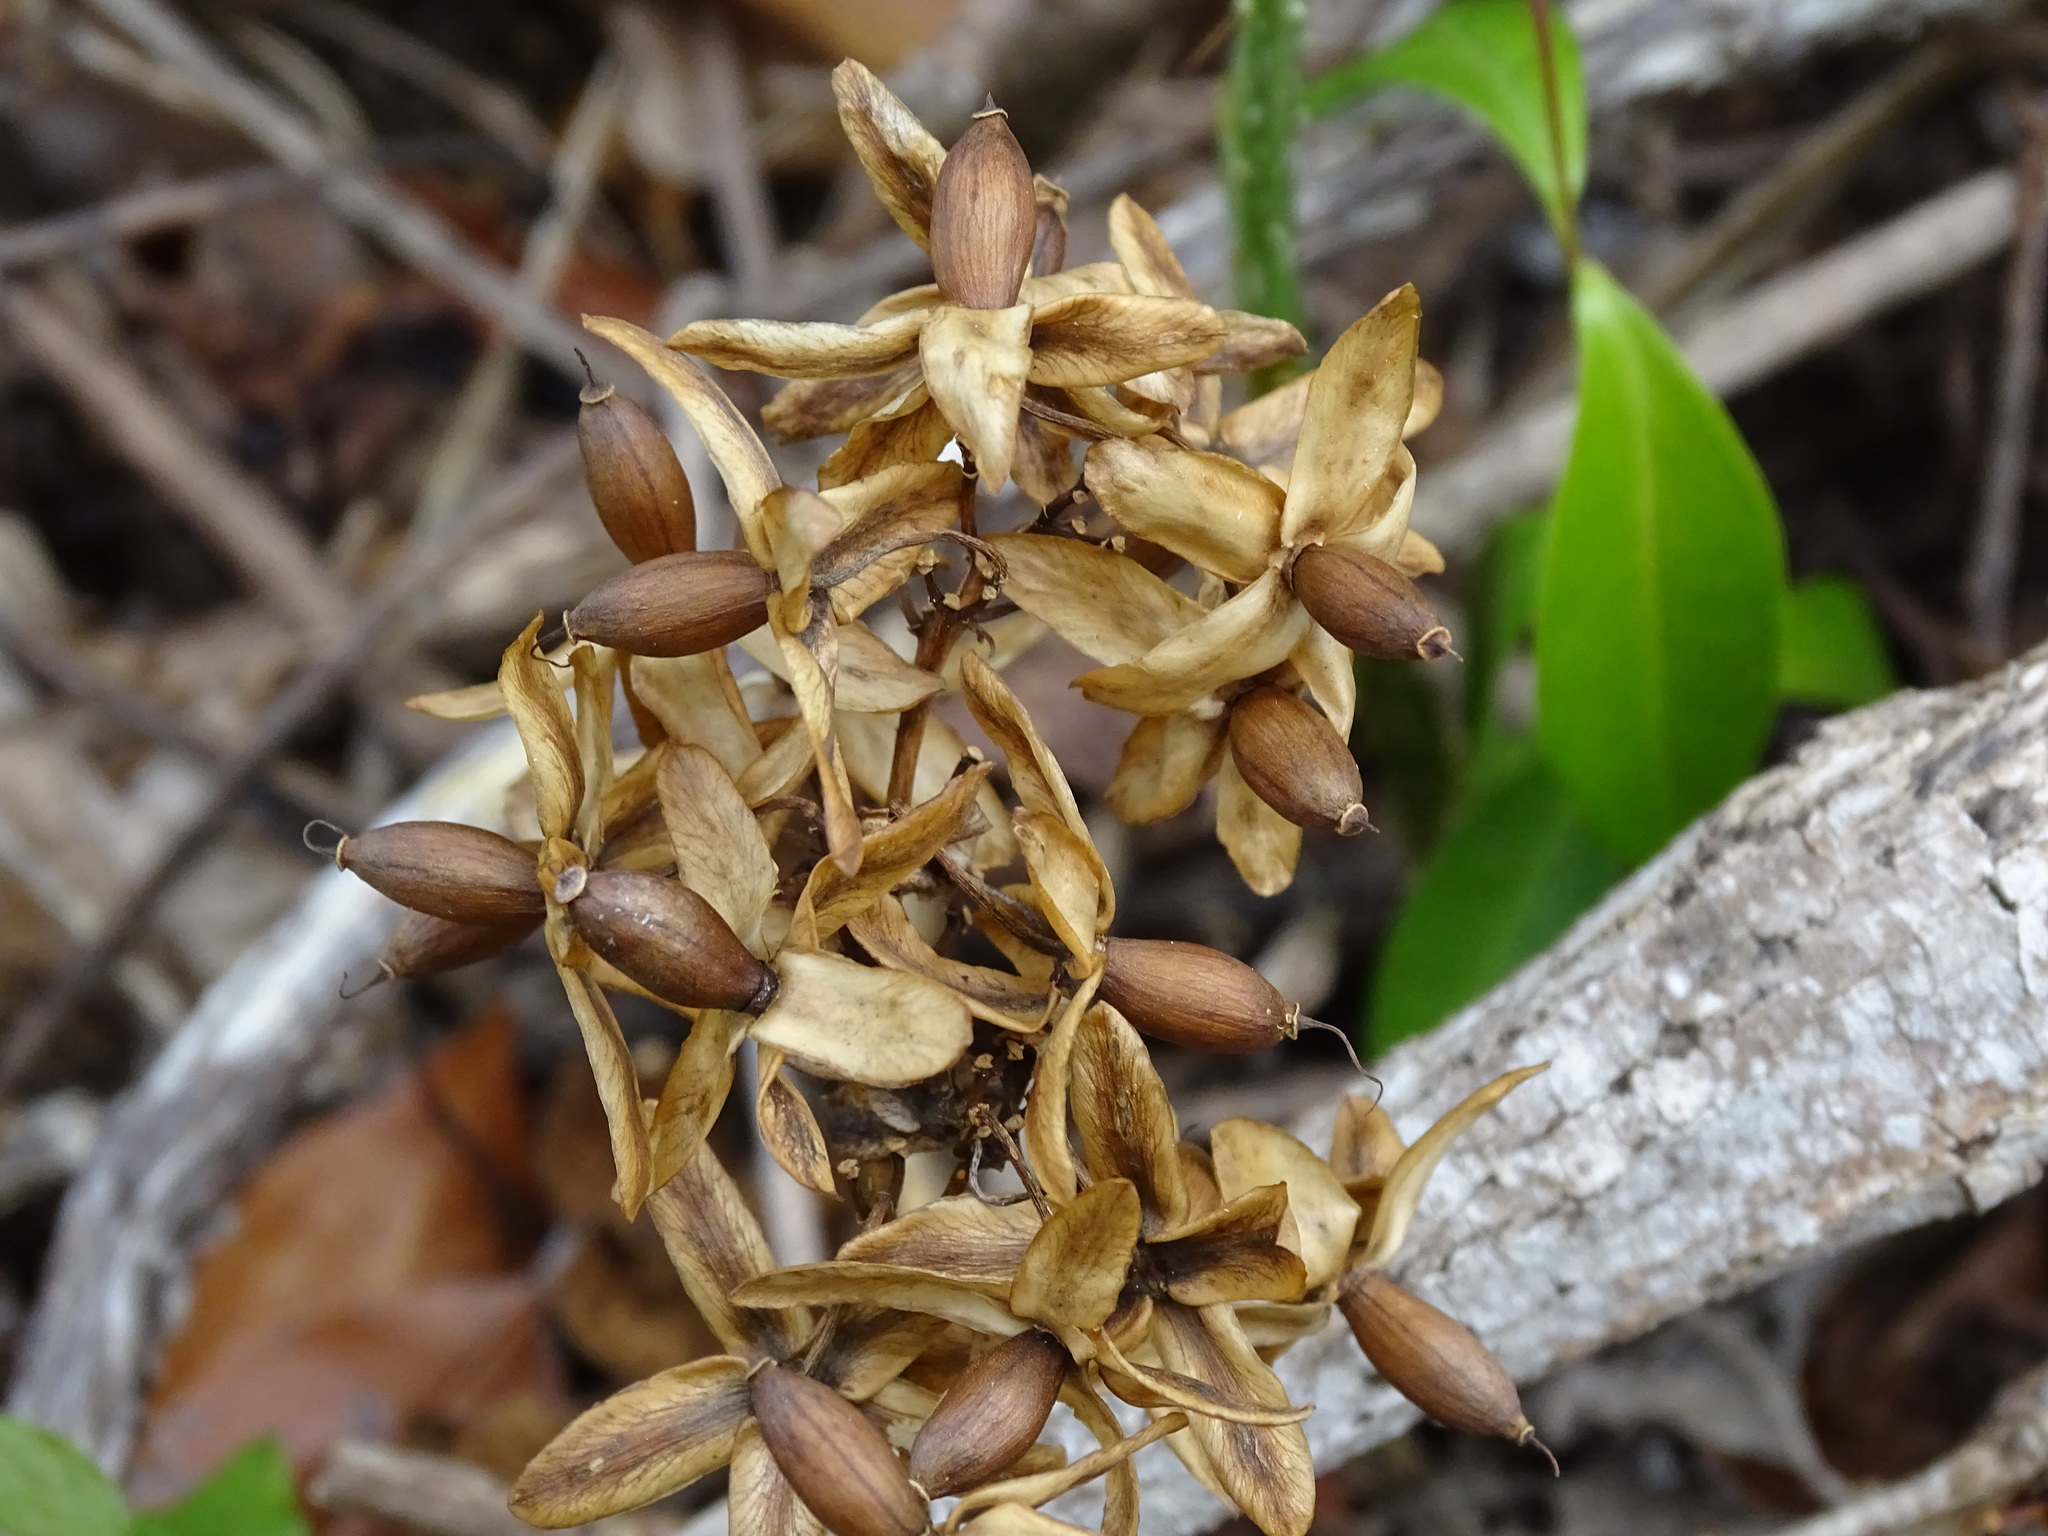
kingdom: Plantae
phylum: Tracheophyta
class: Magnoliopsida
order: Solanales
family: Convolvulaceae
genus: Ipomoea
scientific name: Ipomoea corymbosa
